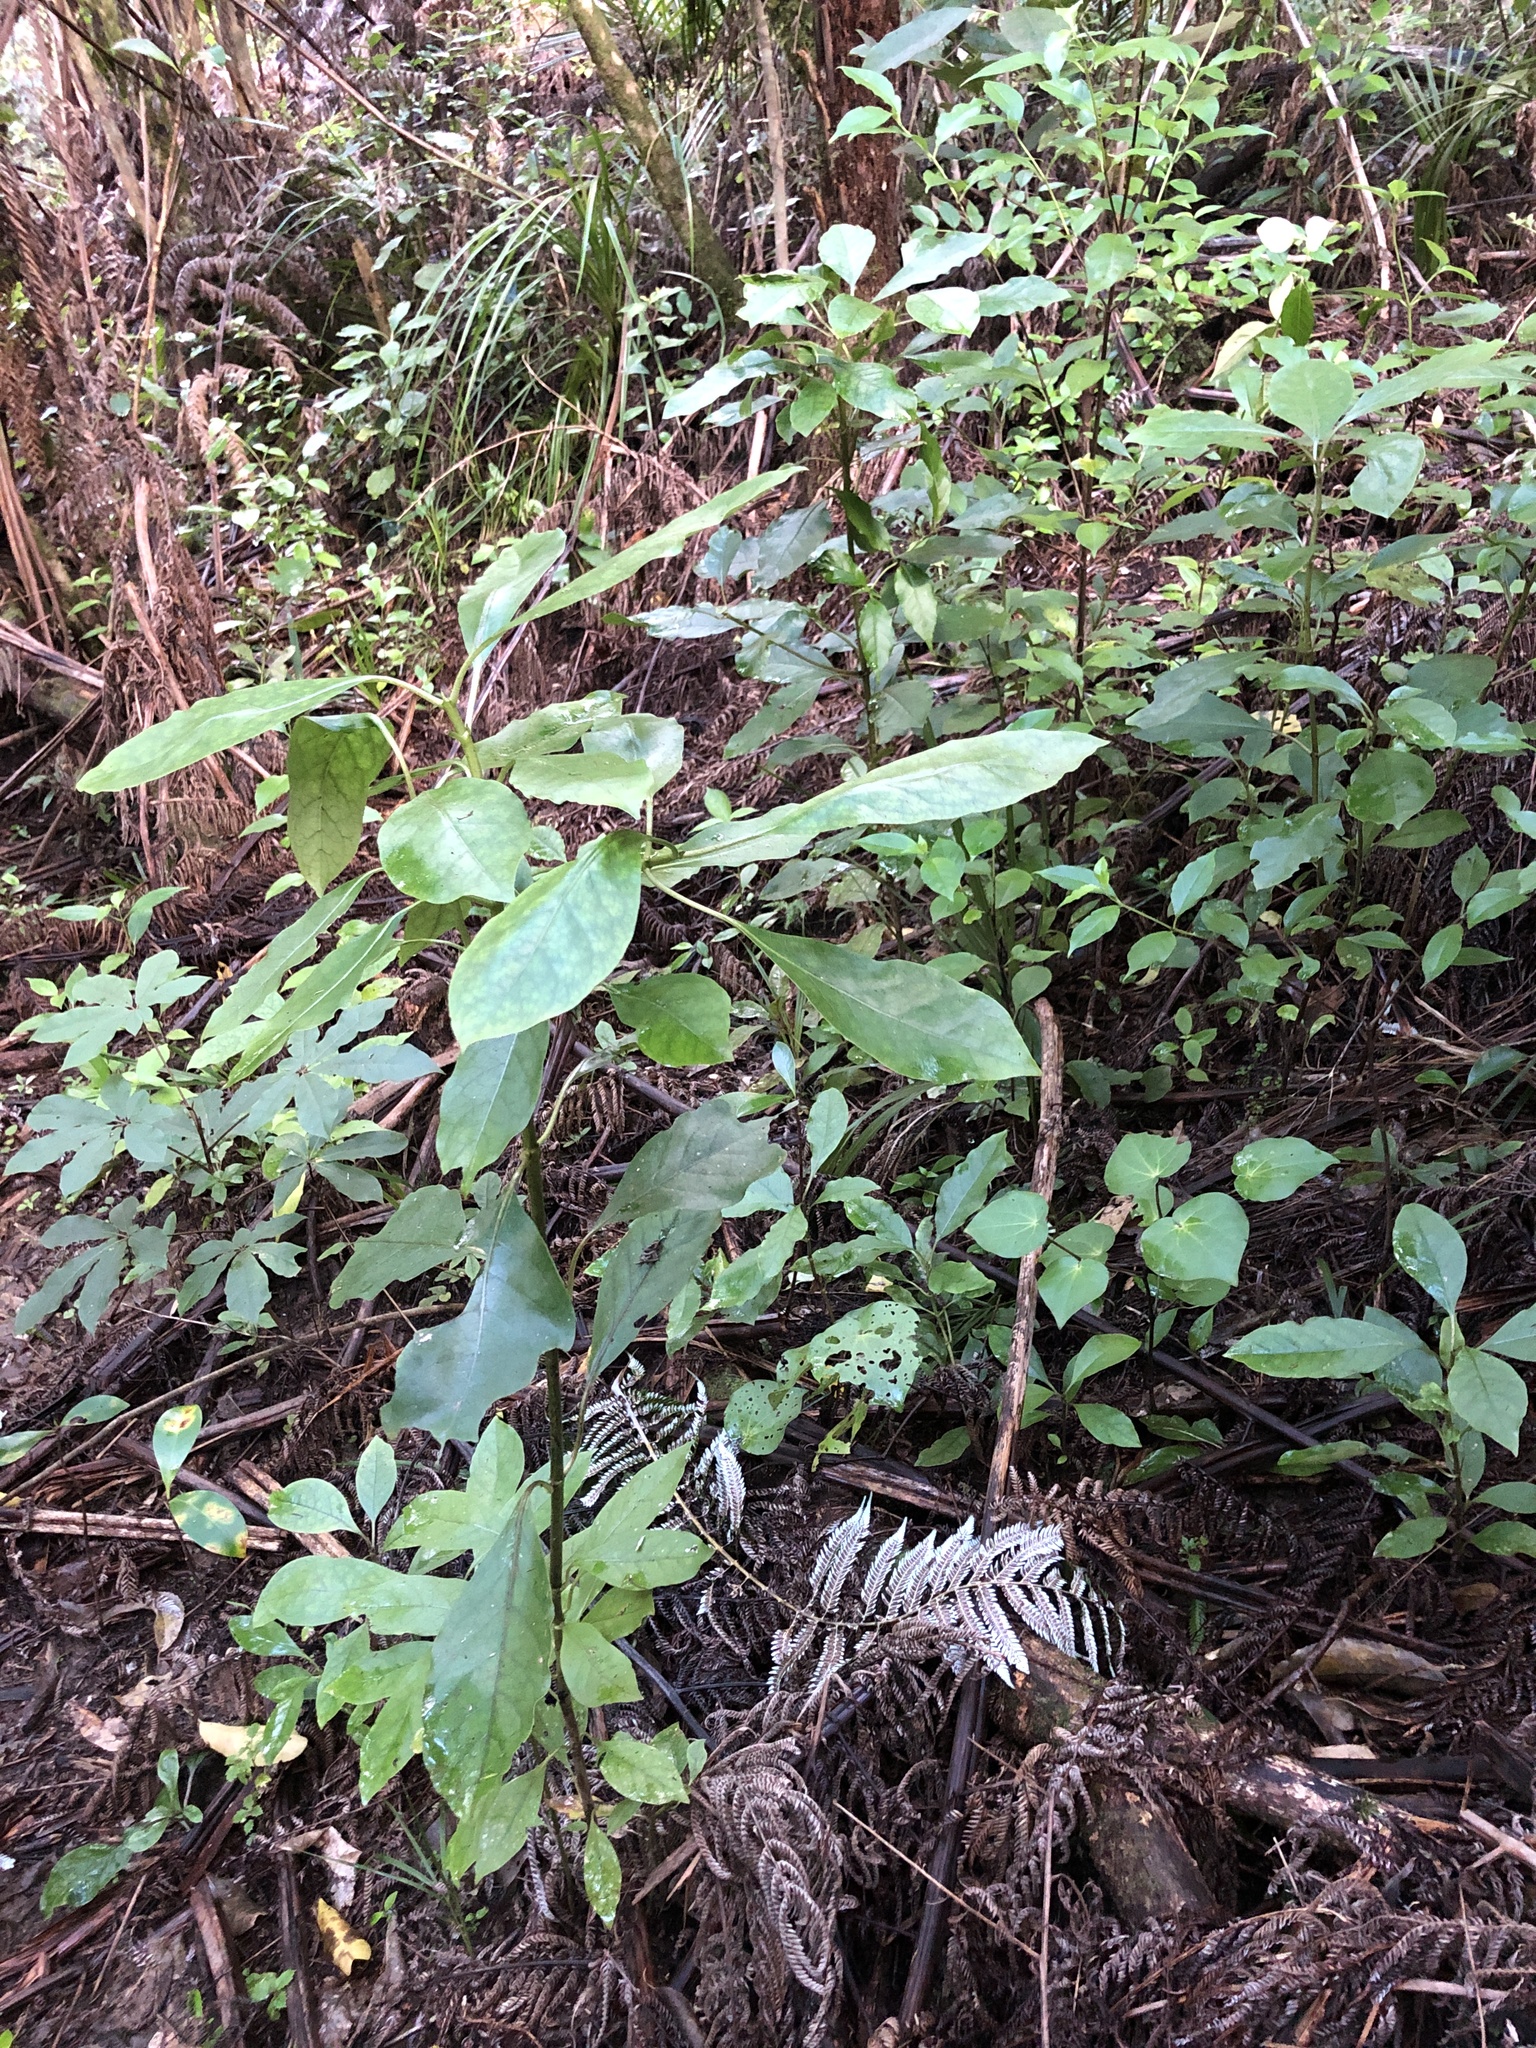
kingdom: Plantae
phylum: Tracheophyta
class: Magnoliopsida
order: Gentianales
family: Rubiaceae
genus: Coprosma
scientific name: Coprosma autumnalis
